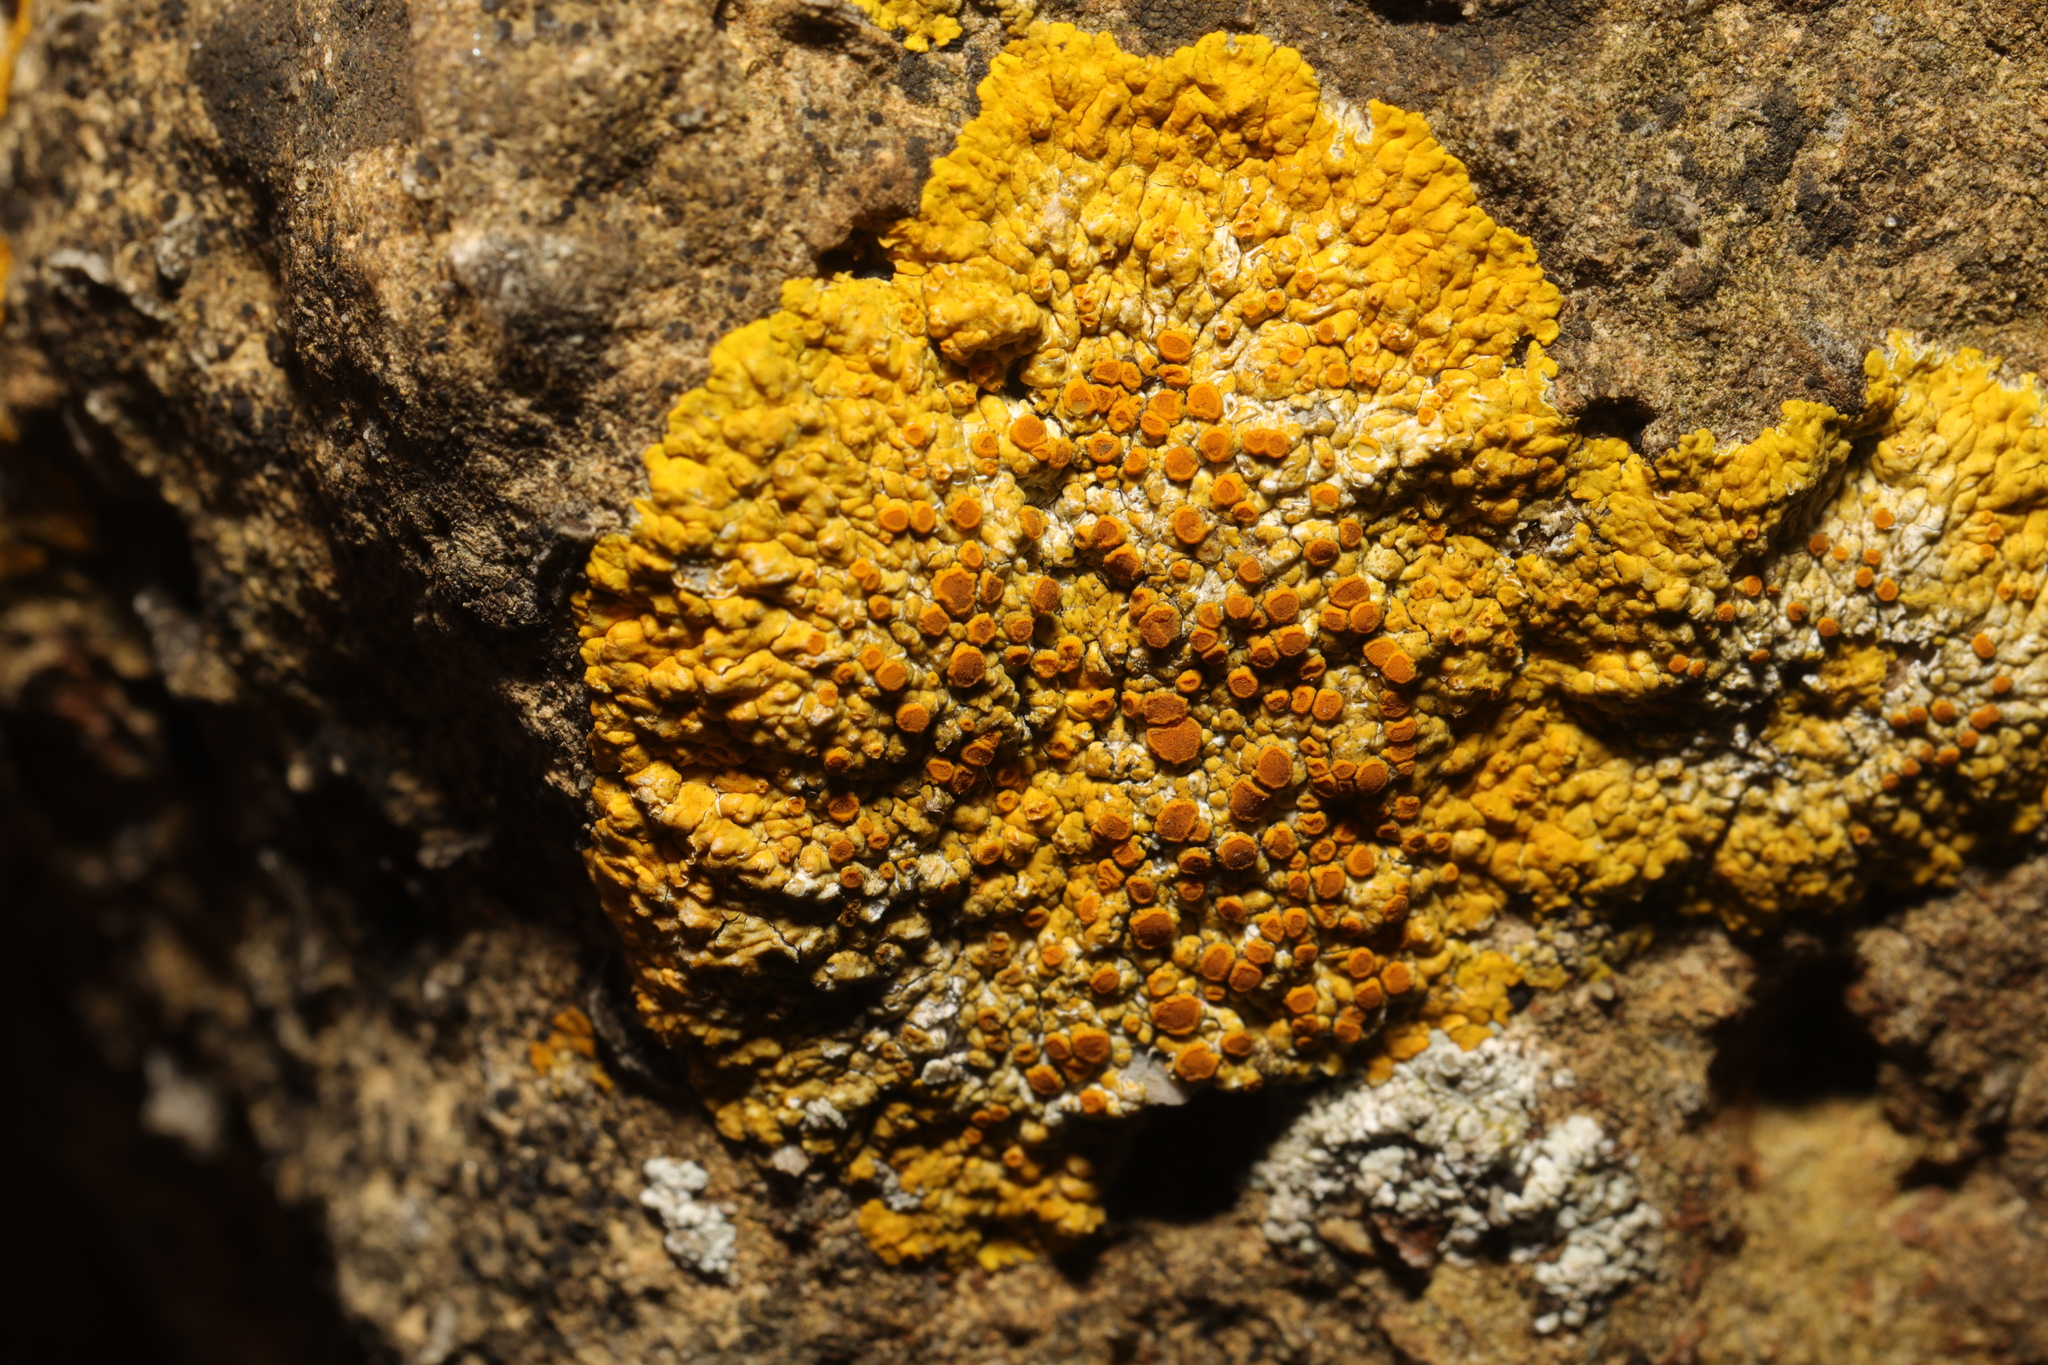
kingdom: Fungi
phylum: Ascomycota
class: Lecanoromycetes
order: Teloschistales
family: Teloschistaceae
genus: Variospora
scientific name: Variospora flavescens
